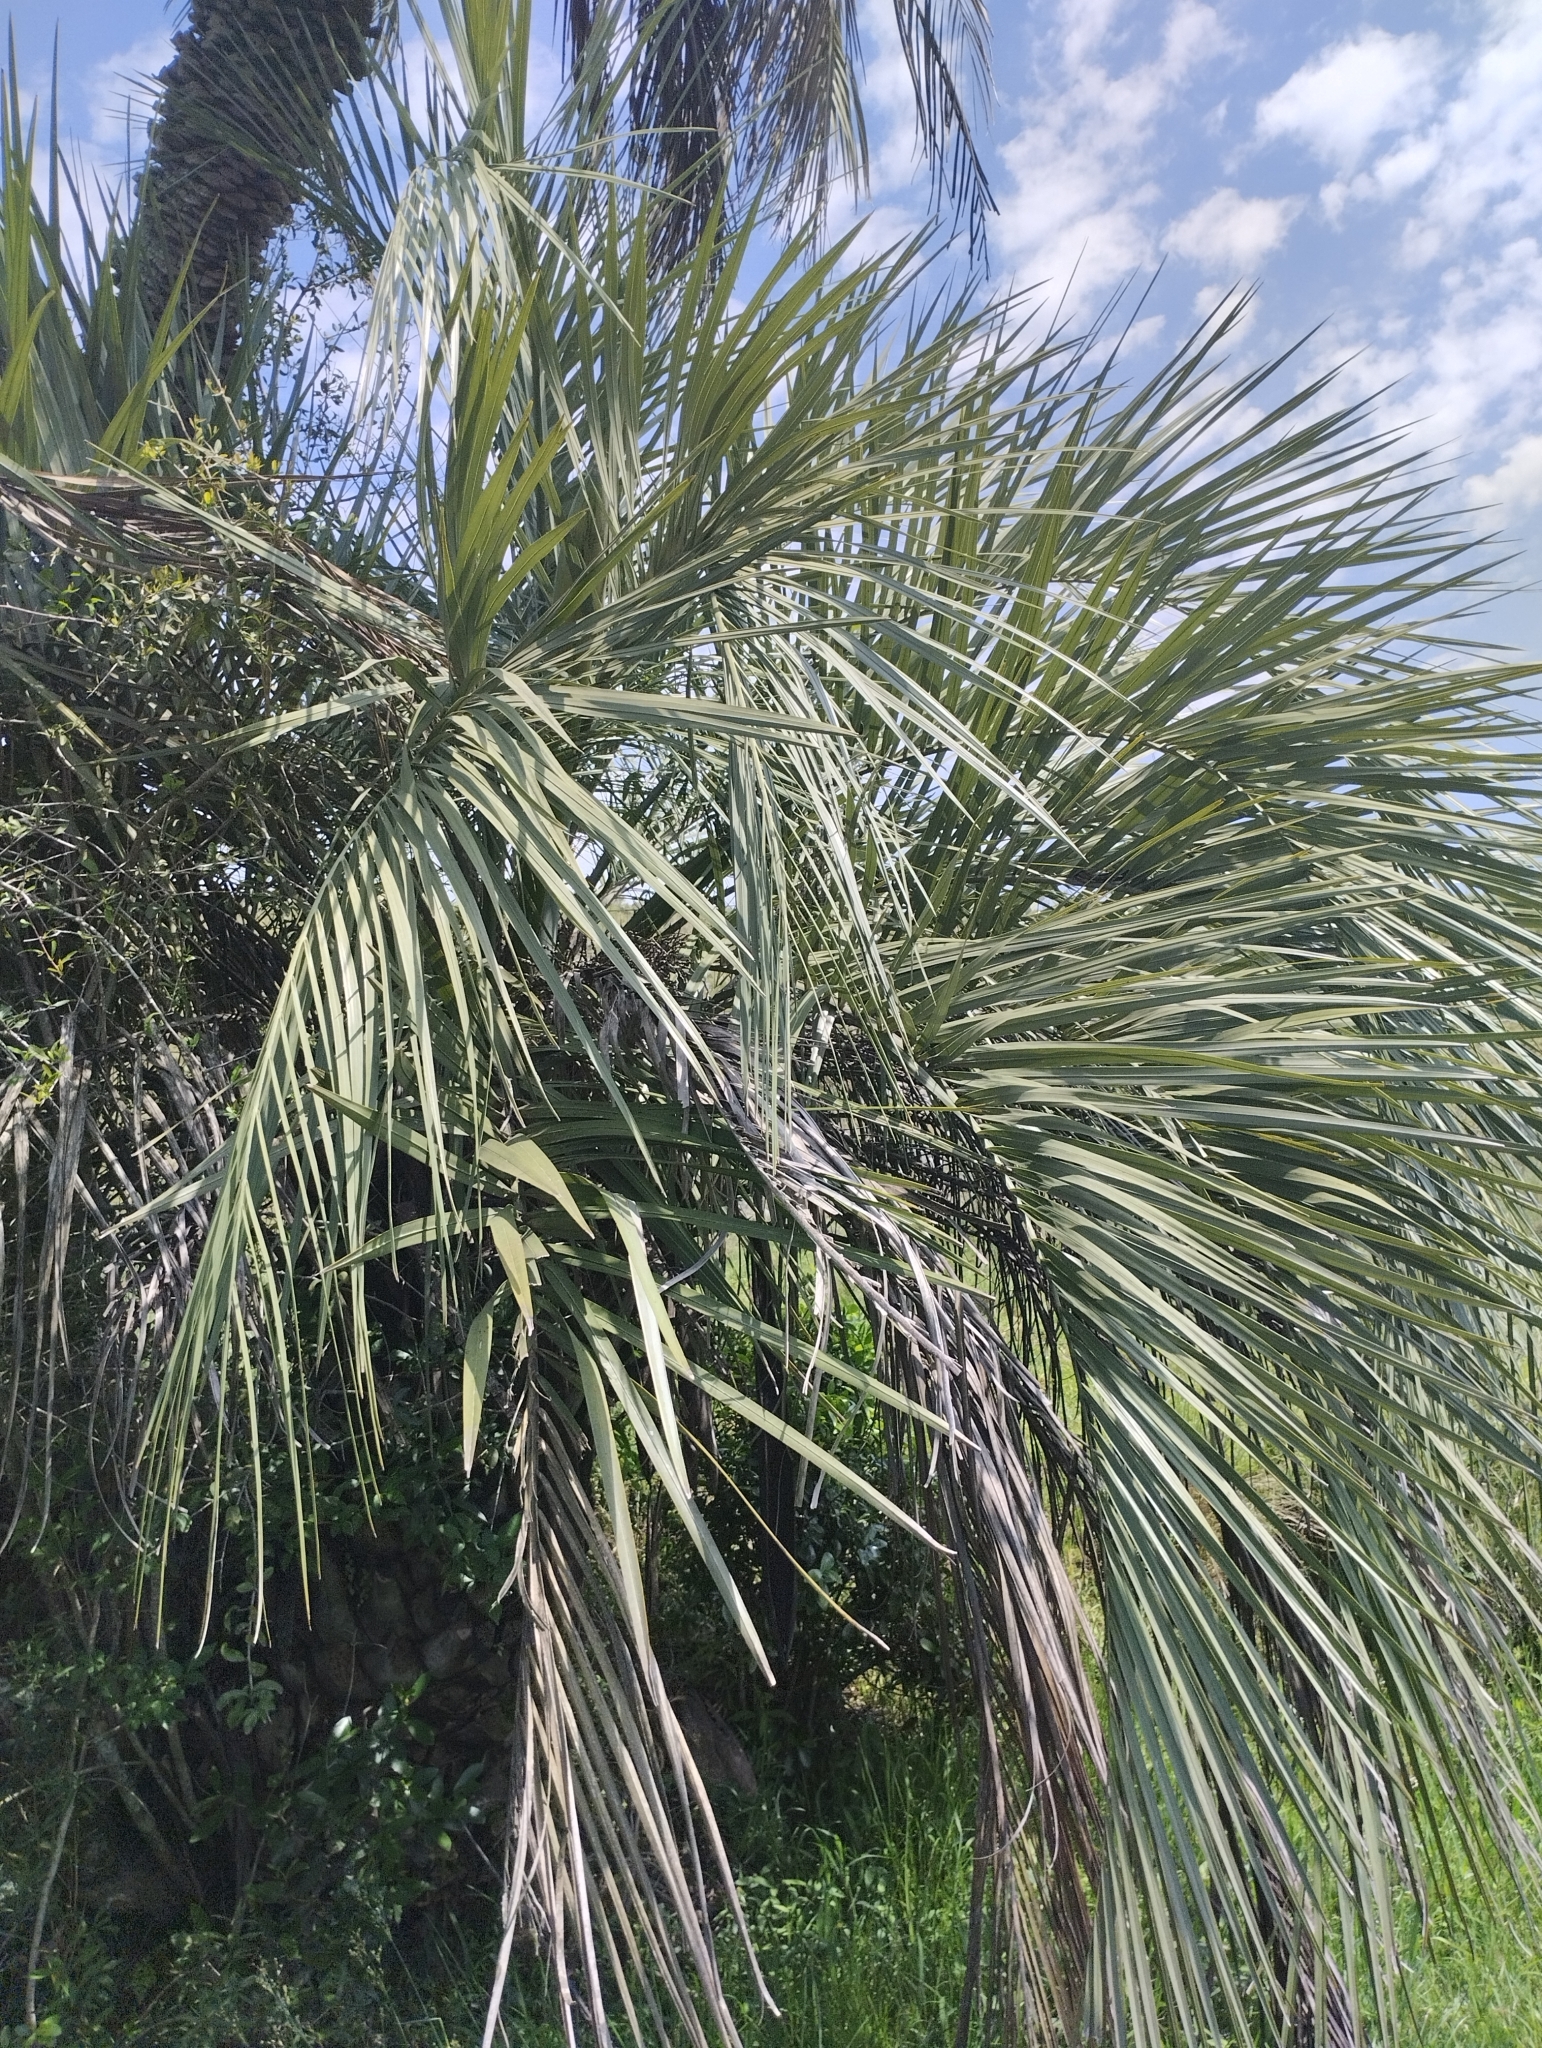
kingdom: Plantae
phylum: Tracheophyta
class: Liliopsida
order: Arecales
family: Arecaceae
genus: Butia
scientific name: Butia odorata
